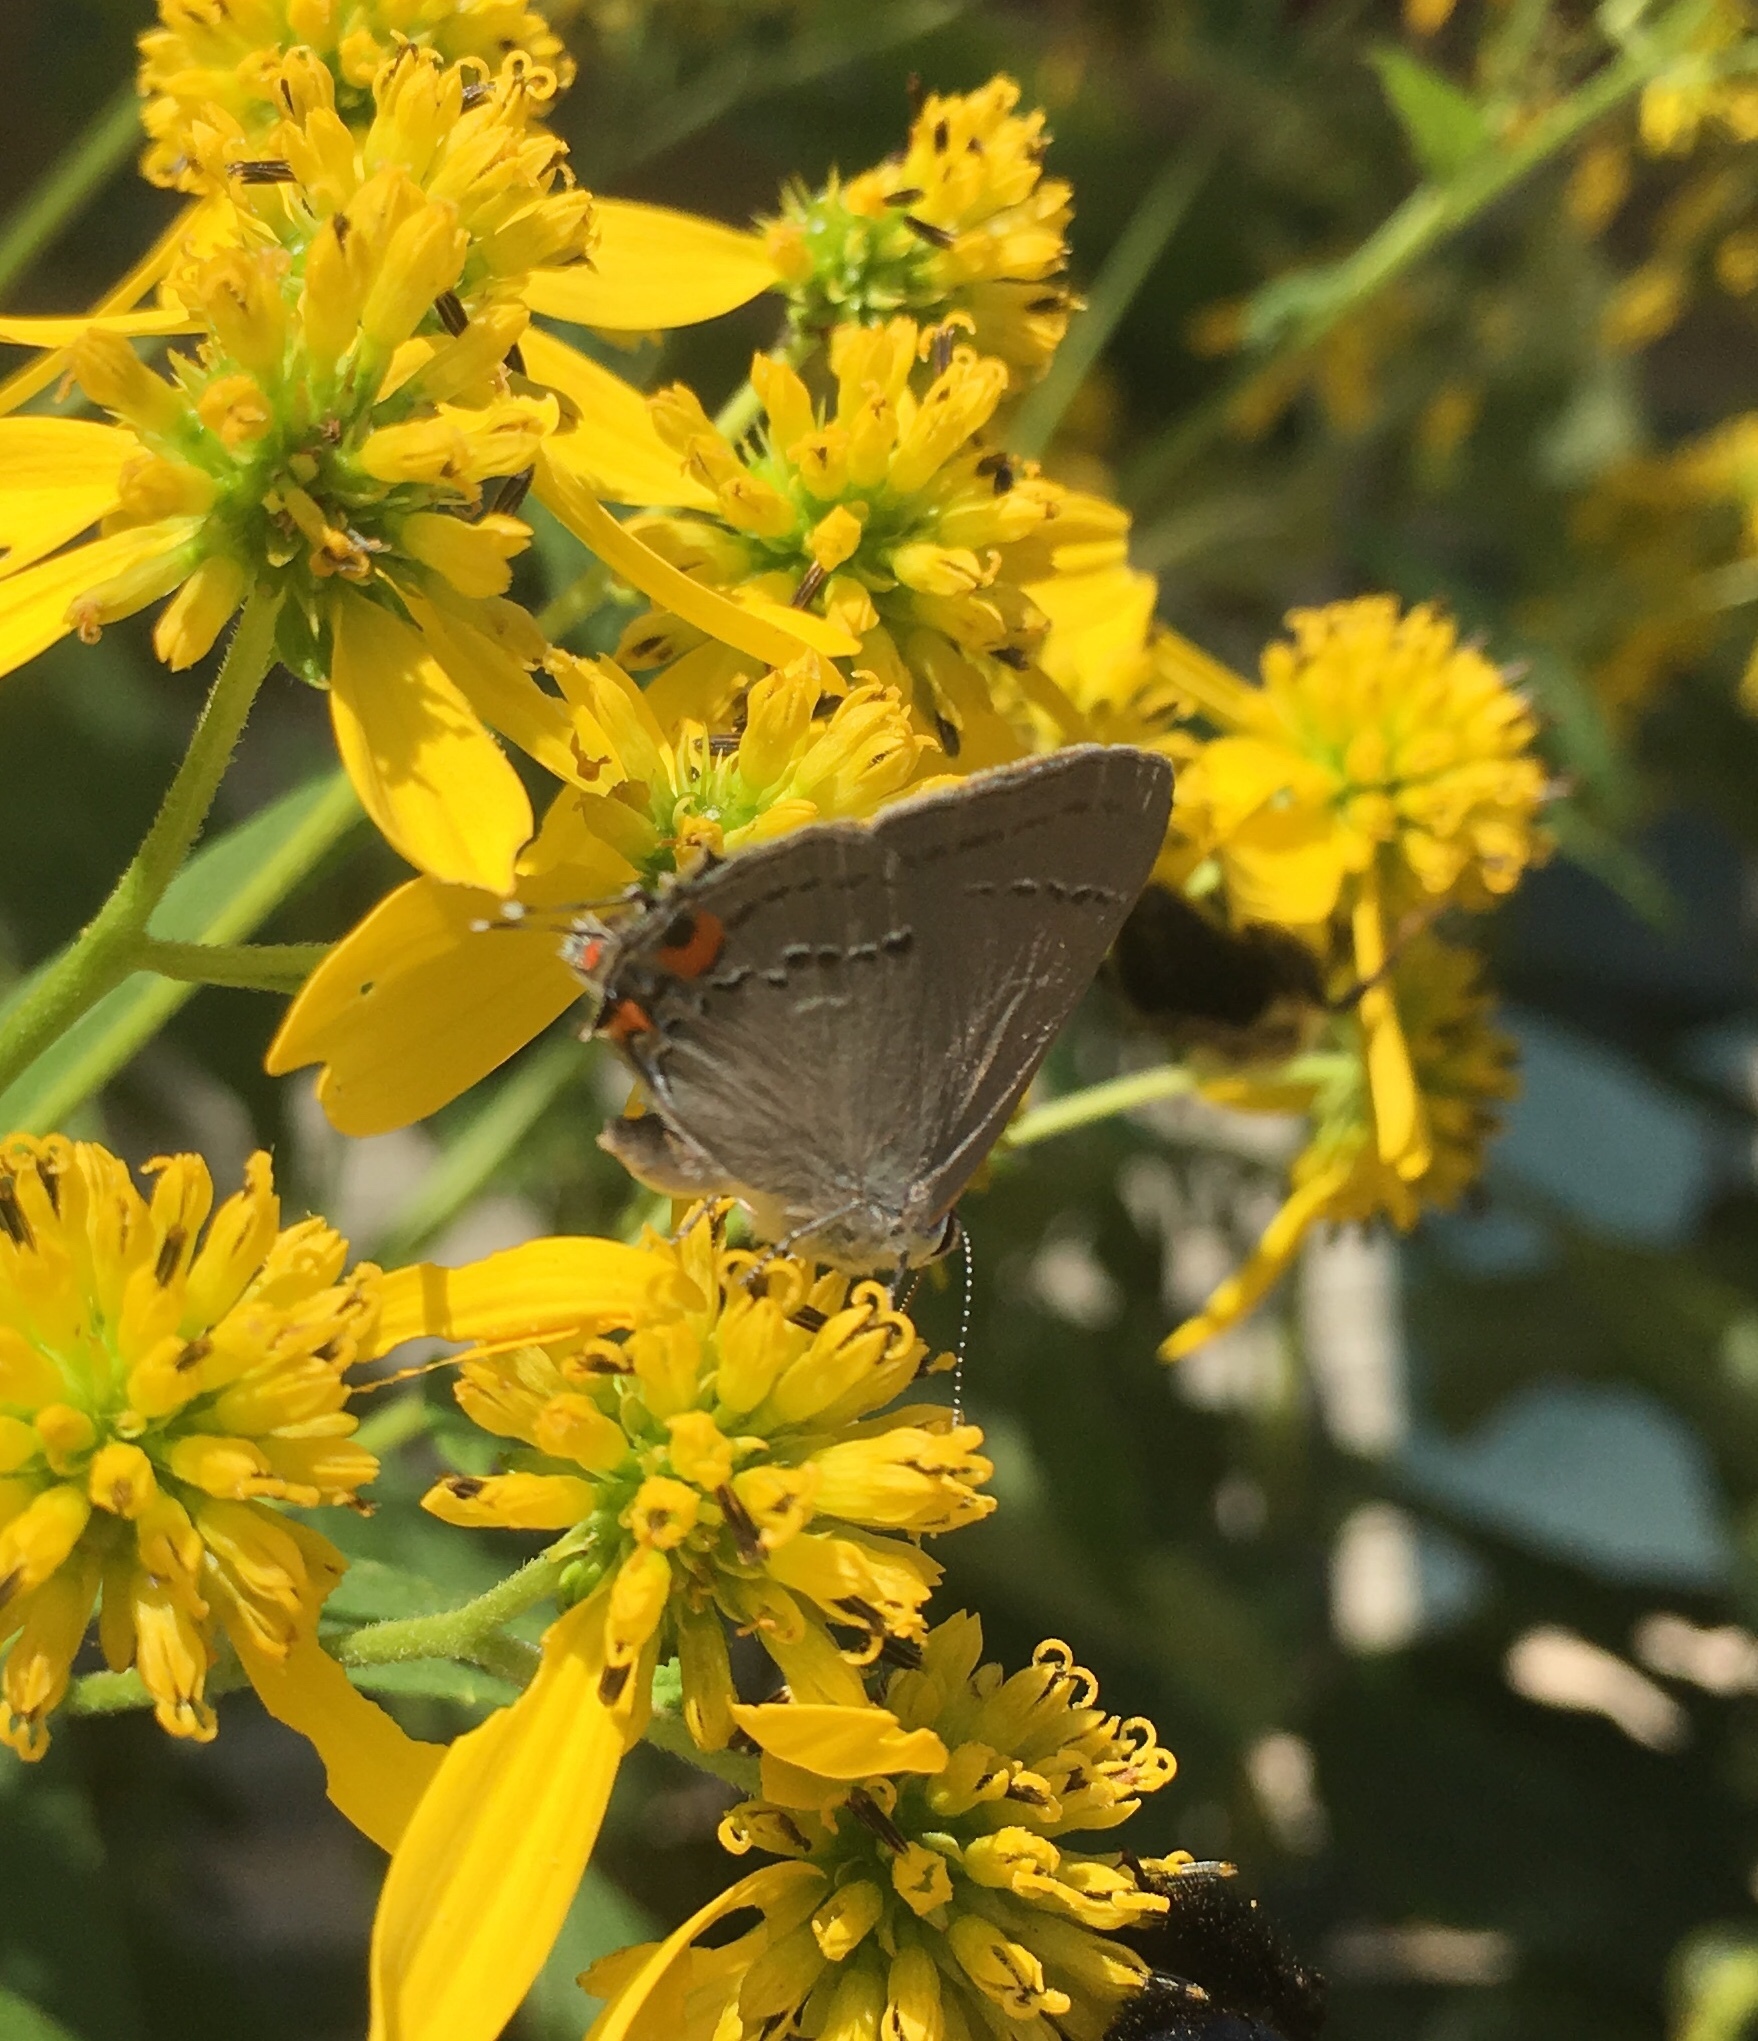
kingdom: Animalia
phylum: Arthropoda
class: Insecta
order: Lepidoptera
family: Lycaenidae
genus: Strymon
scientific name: Strymon melinus
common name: Gray hairstreak
